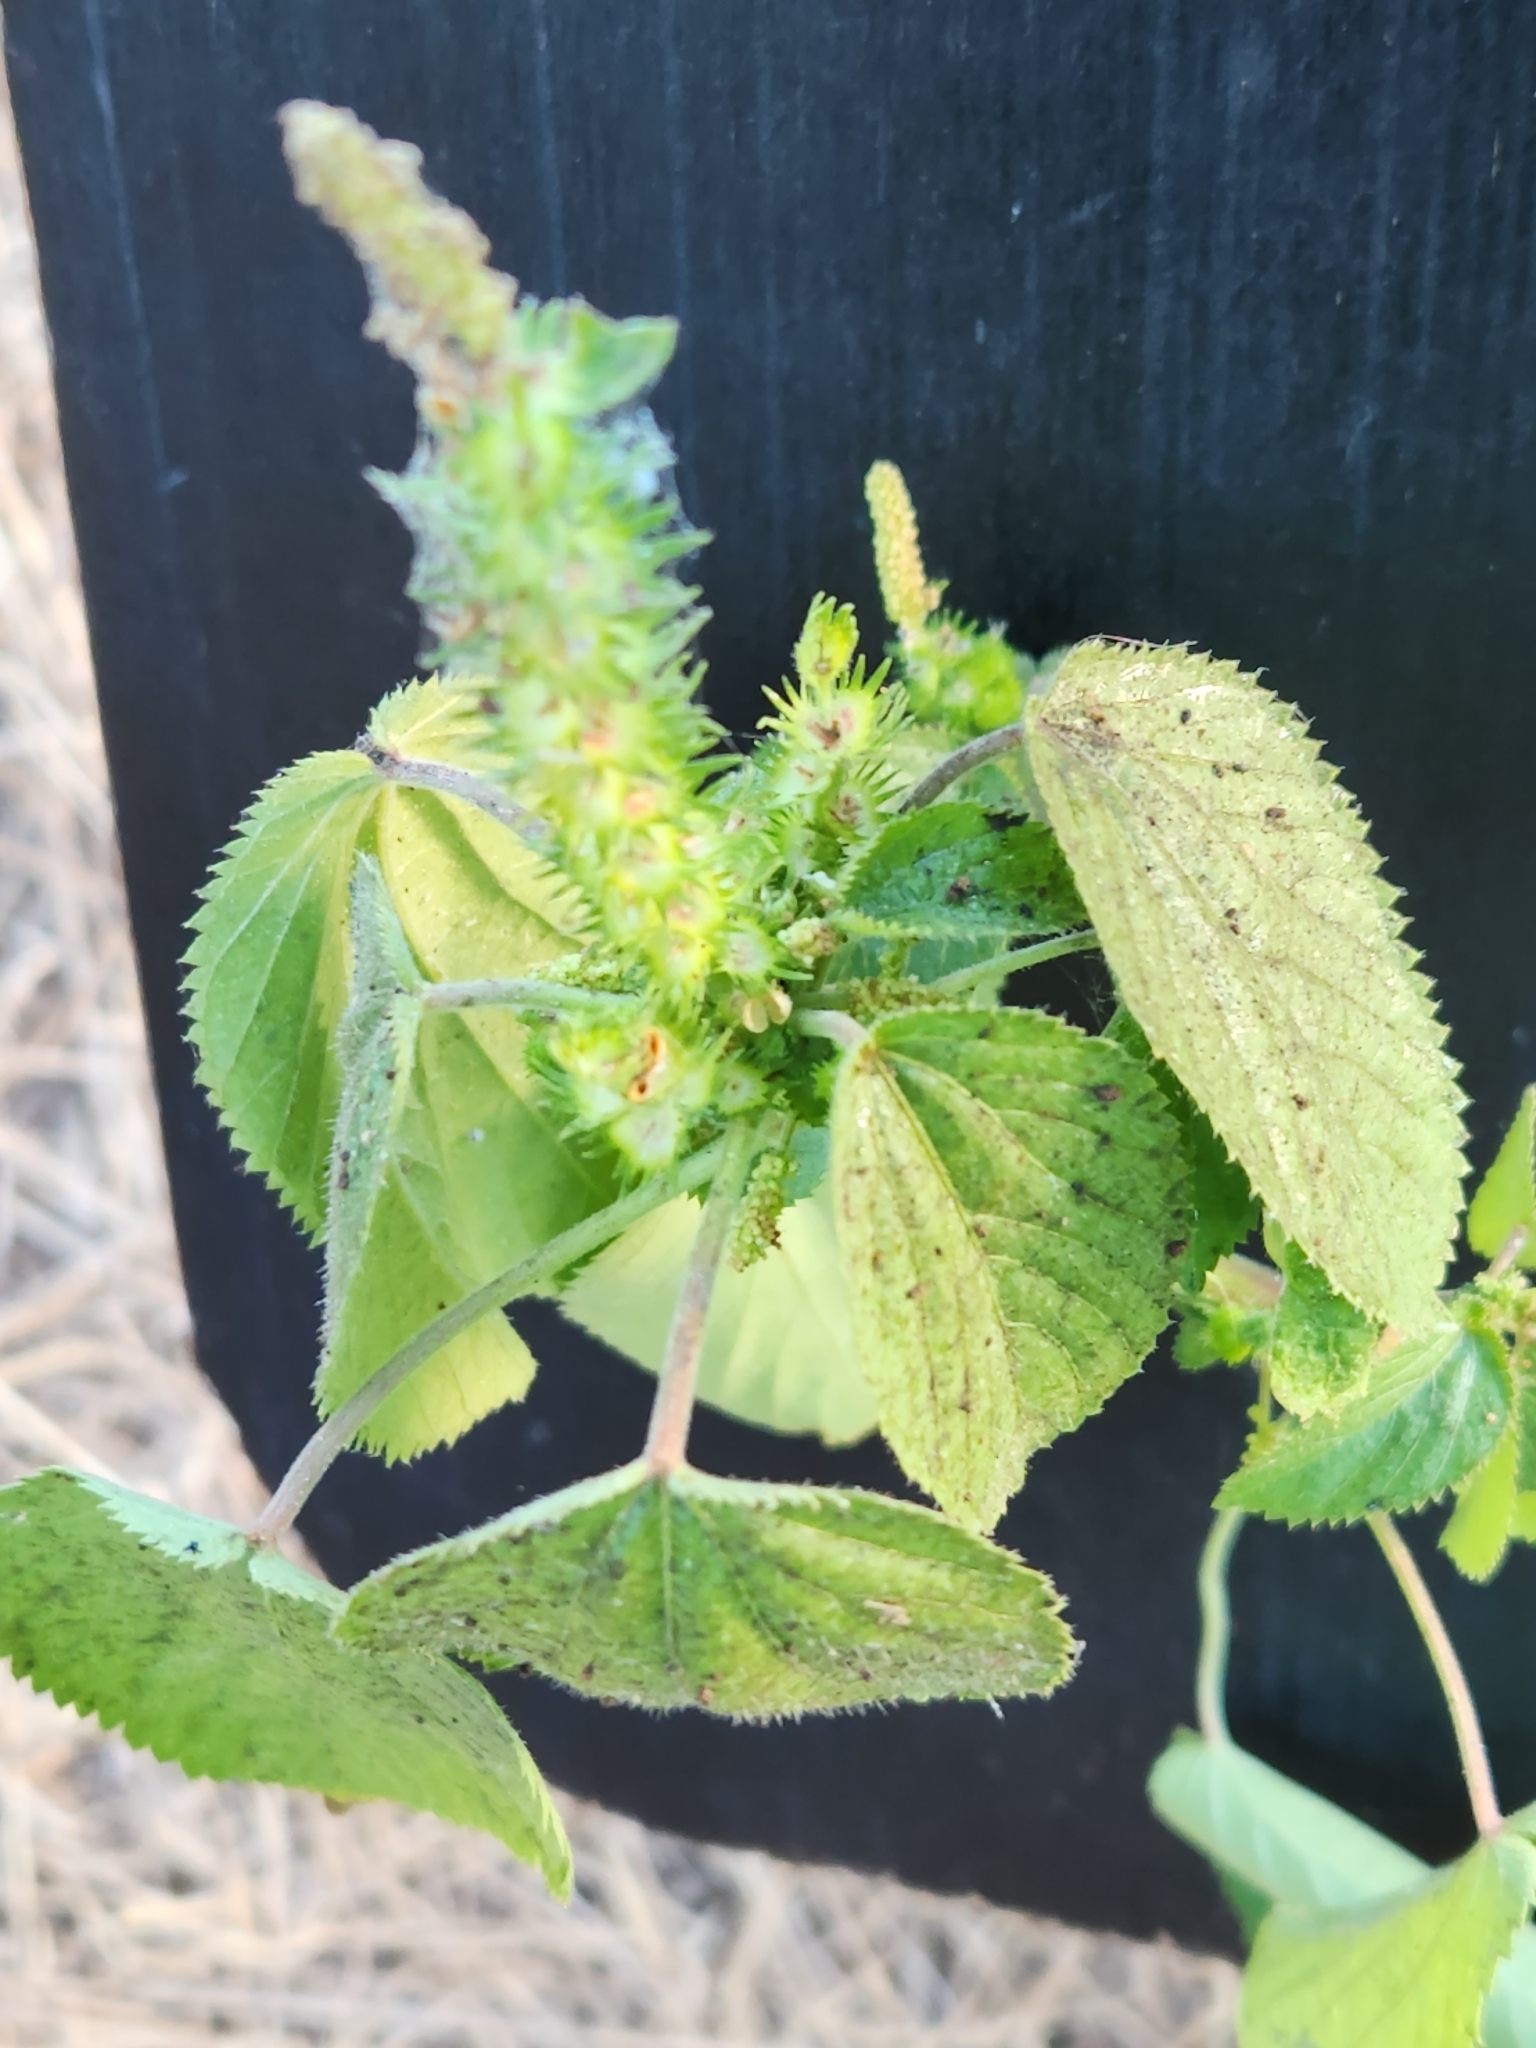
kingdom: Plantae
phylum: Tracheophyta
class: Magnoliopsida
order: Malpighiales
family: Euphorbiaceae
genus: Acalypha
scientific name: Acalypha ostryifolia
